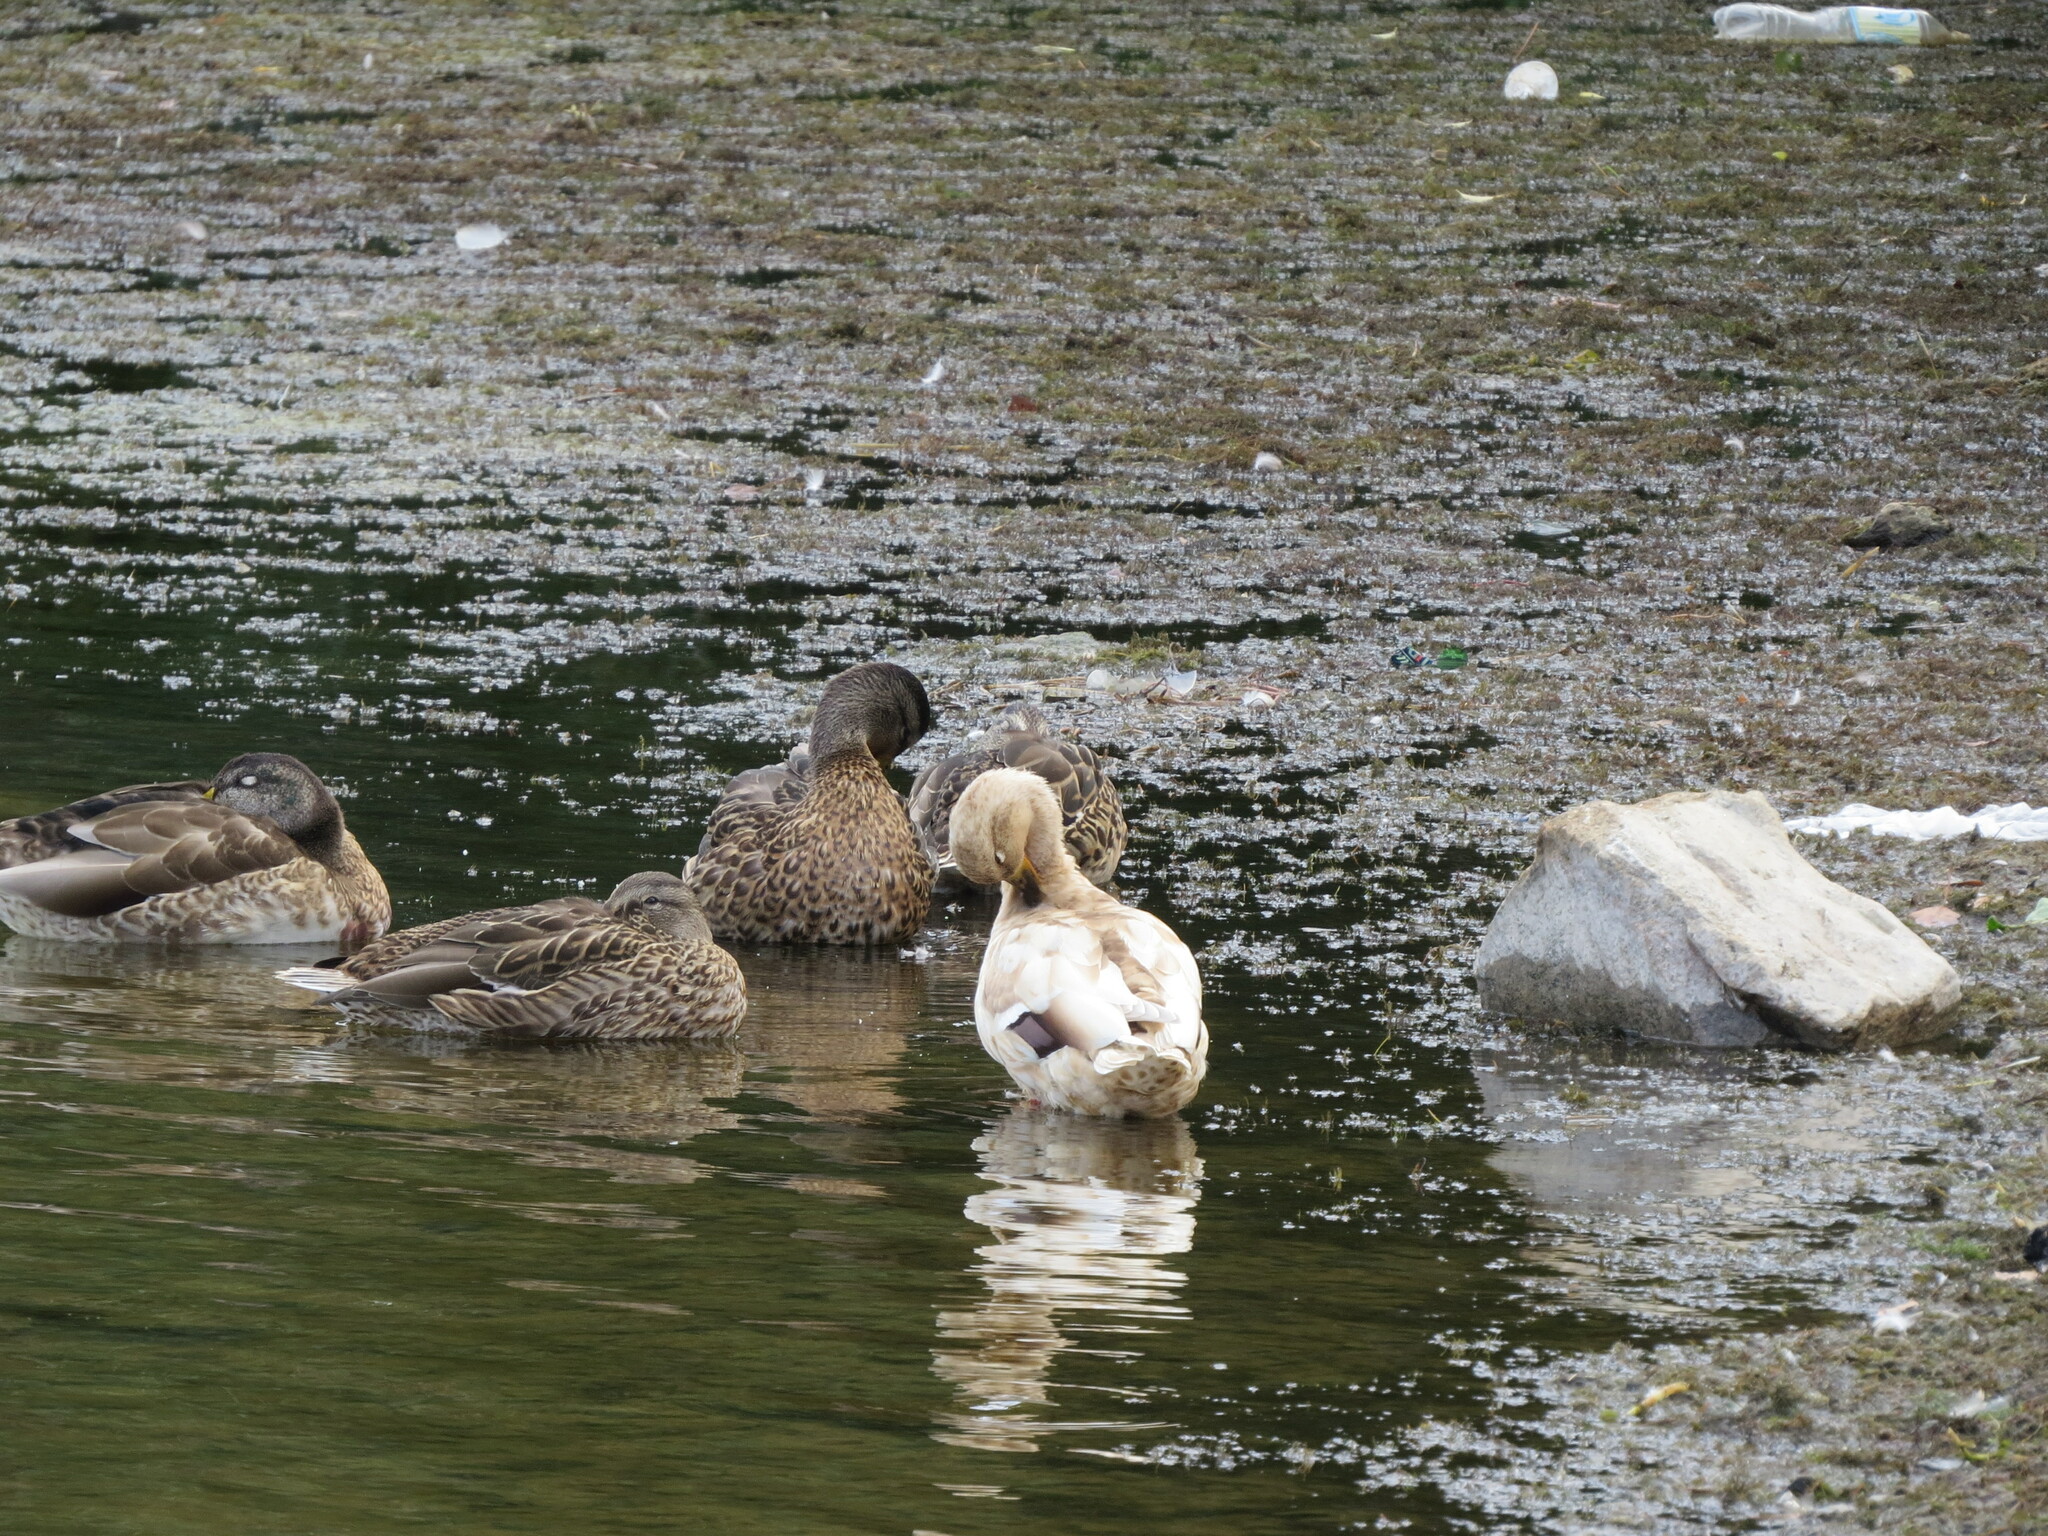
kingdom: Animalia
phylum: Chordata
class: Aves
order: Anseriformes
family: Anatidae
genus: Anas
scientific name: Anas platyrhynchos
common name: Mallard
